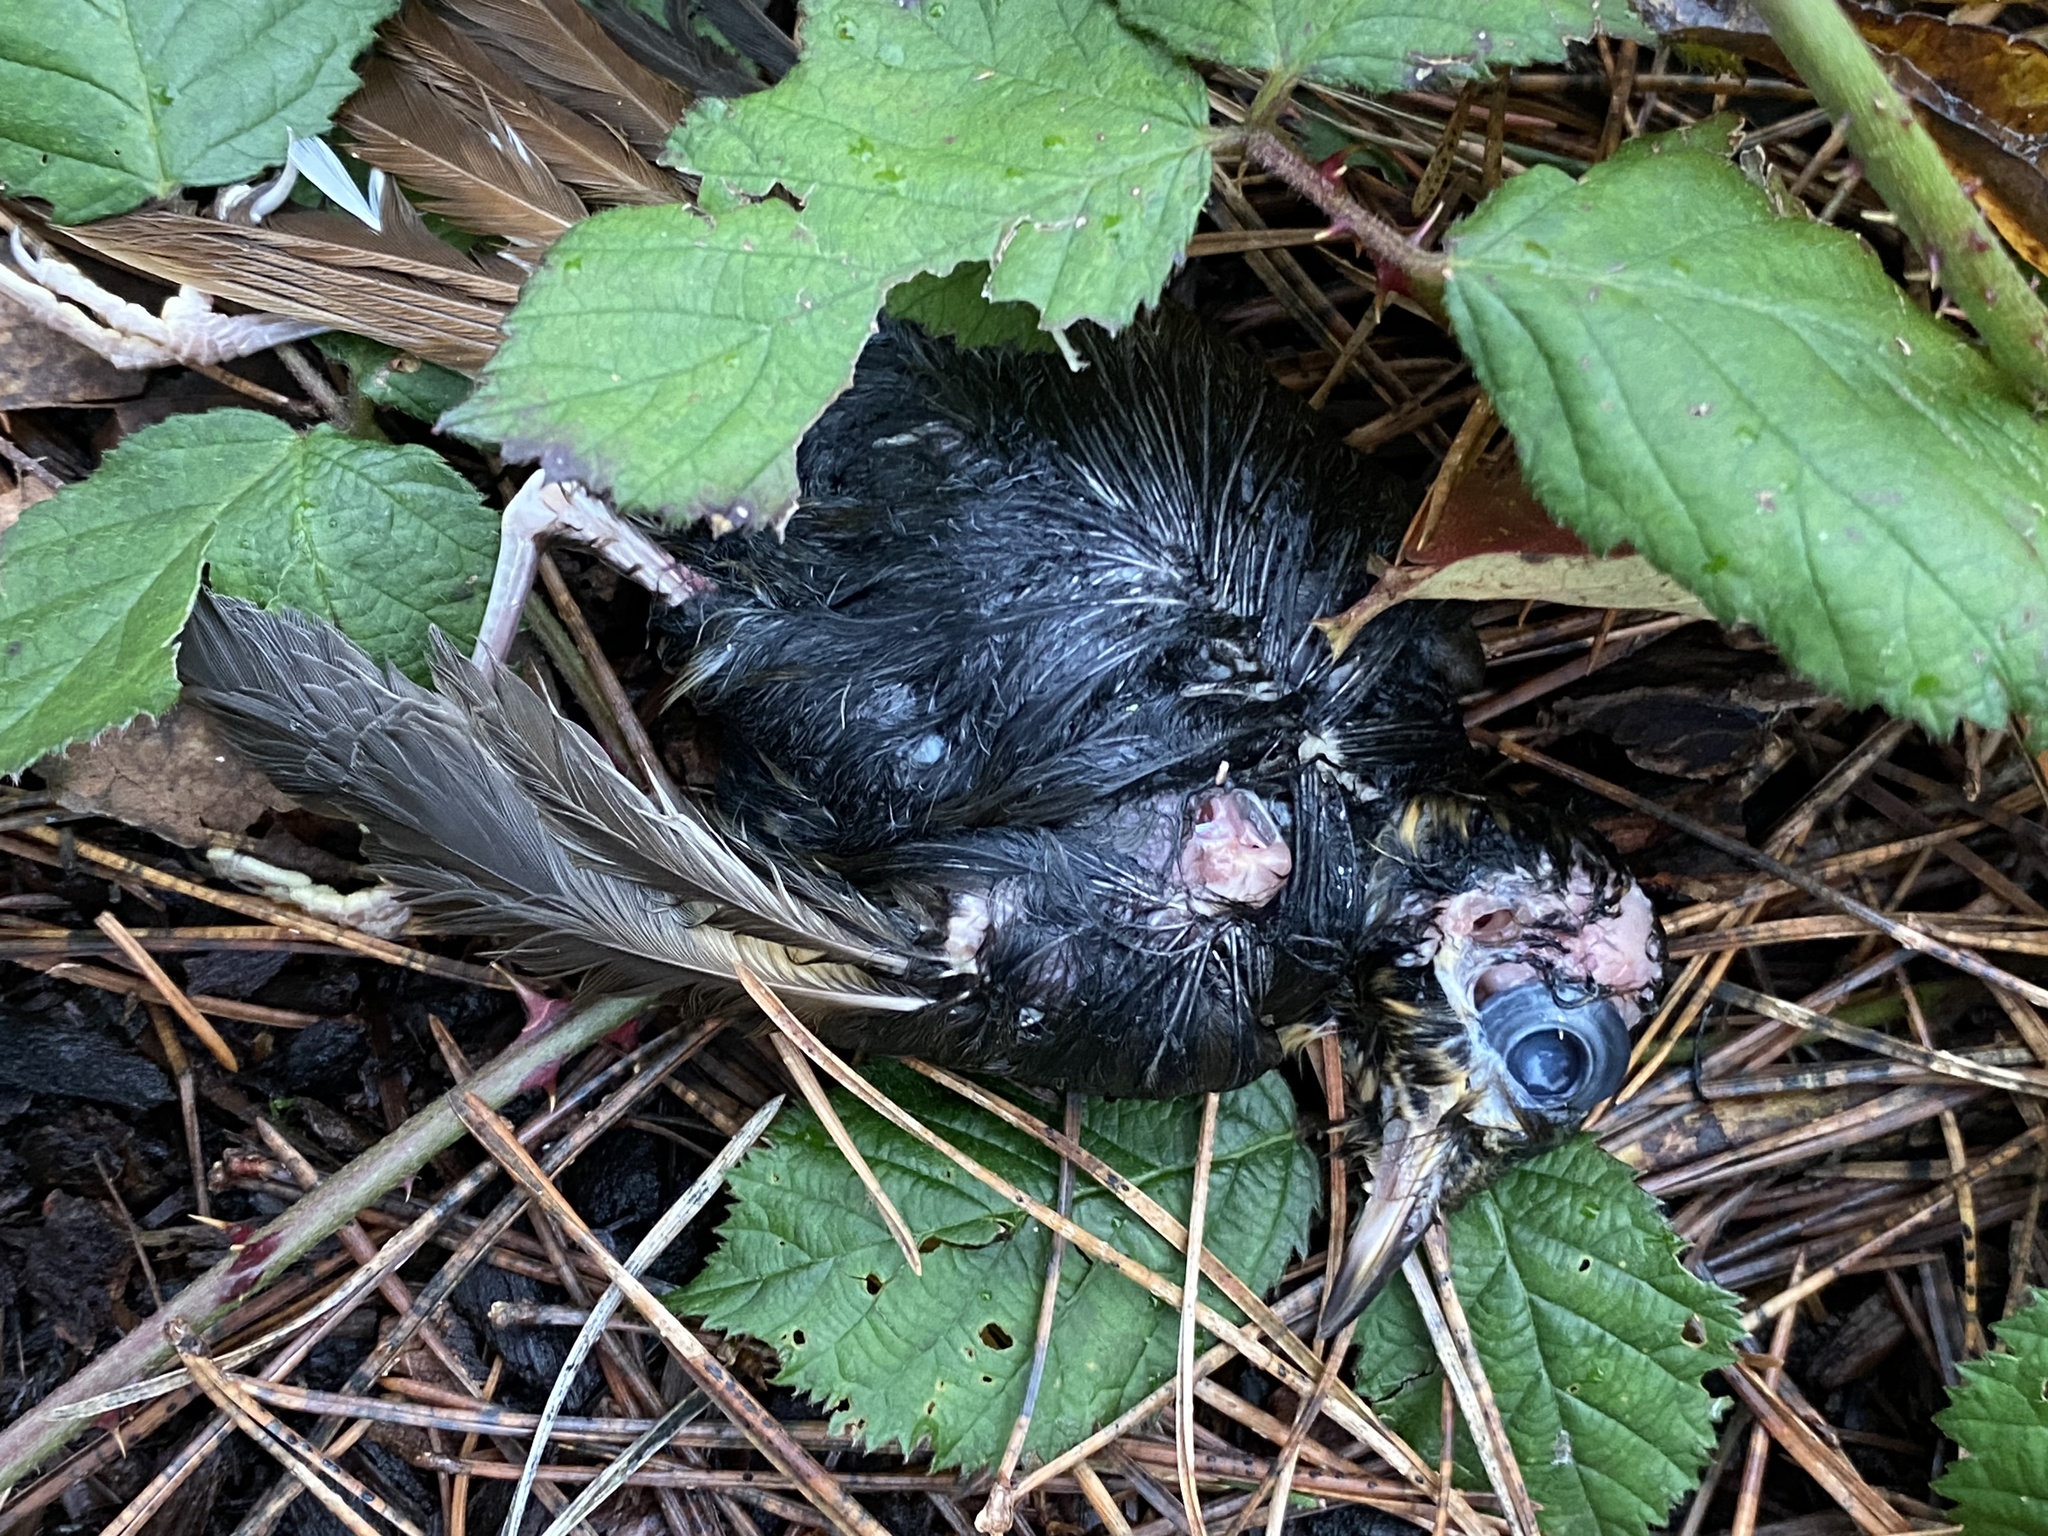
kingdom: Animalia
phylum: Chordata
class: Aves
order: Passeriformes
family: Turdidae
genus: Ixoreus
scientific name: Ixoreus naevius
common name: Varied thrush
